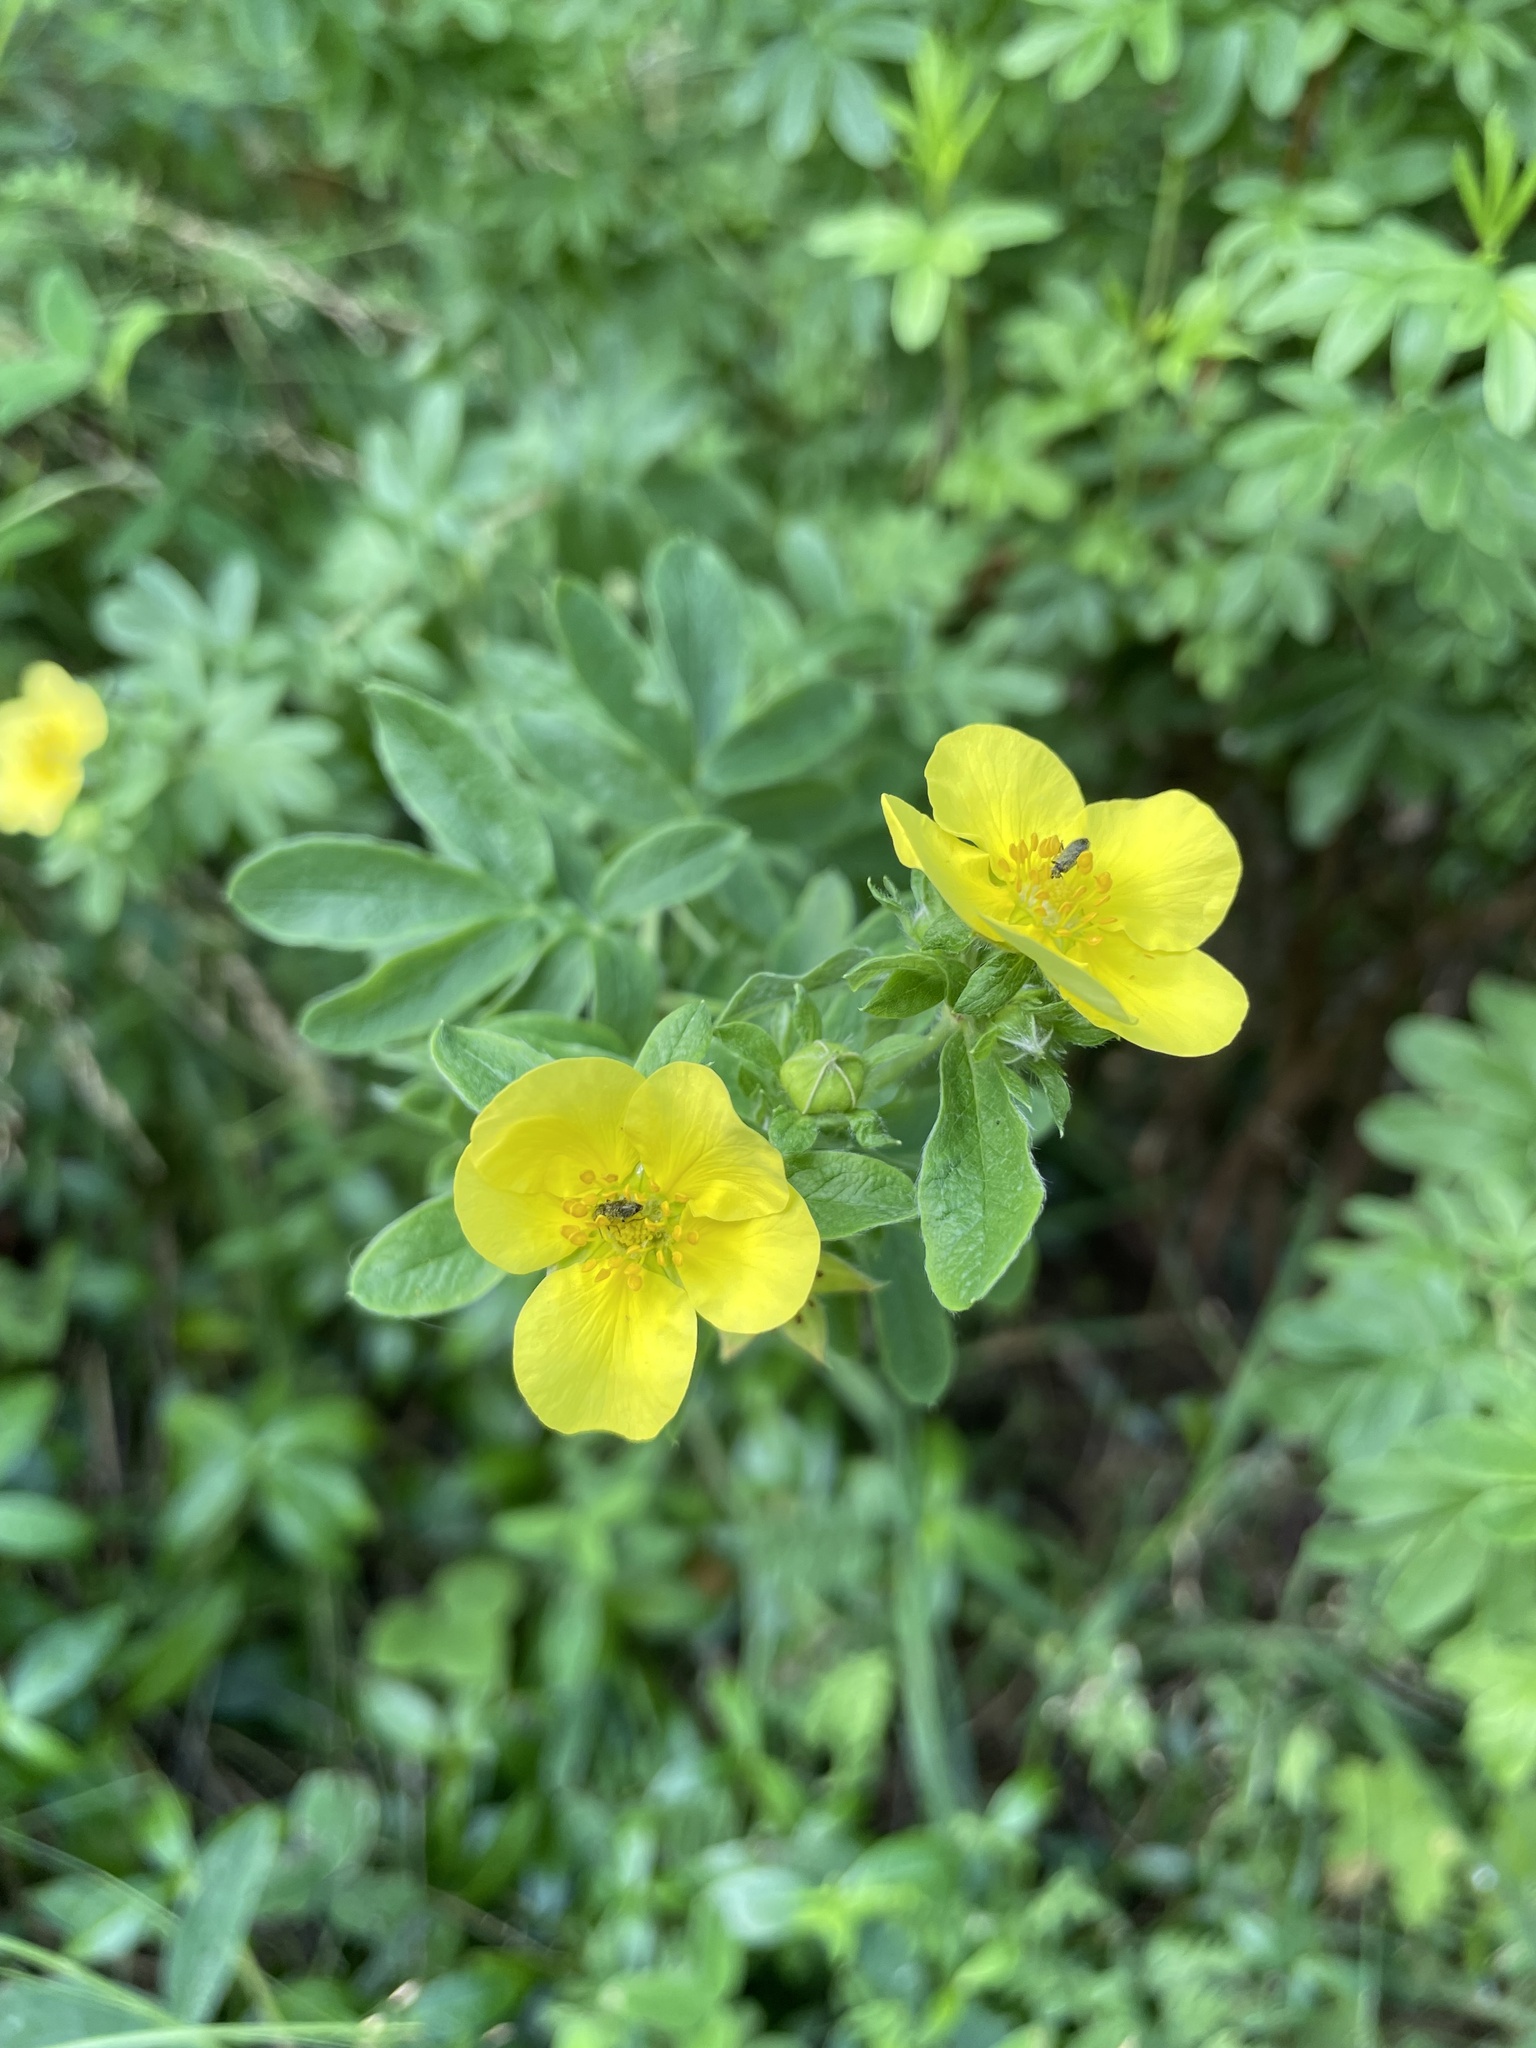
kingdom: Plantae
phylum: Tracheophyta
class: Magnoliopsida
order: Rosales
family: Rosaceae
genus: Dasiphora
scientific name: Dasiphora fruticosa
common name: Shrubby cinquefoil
